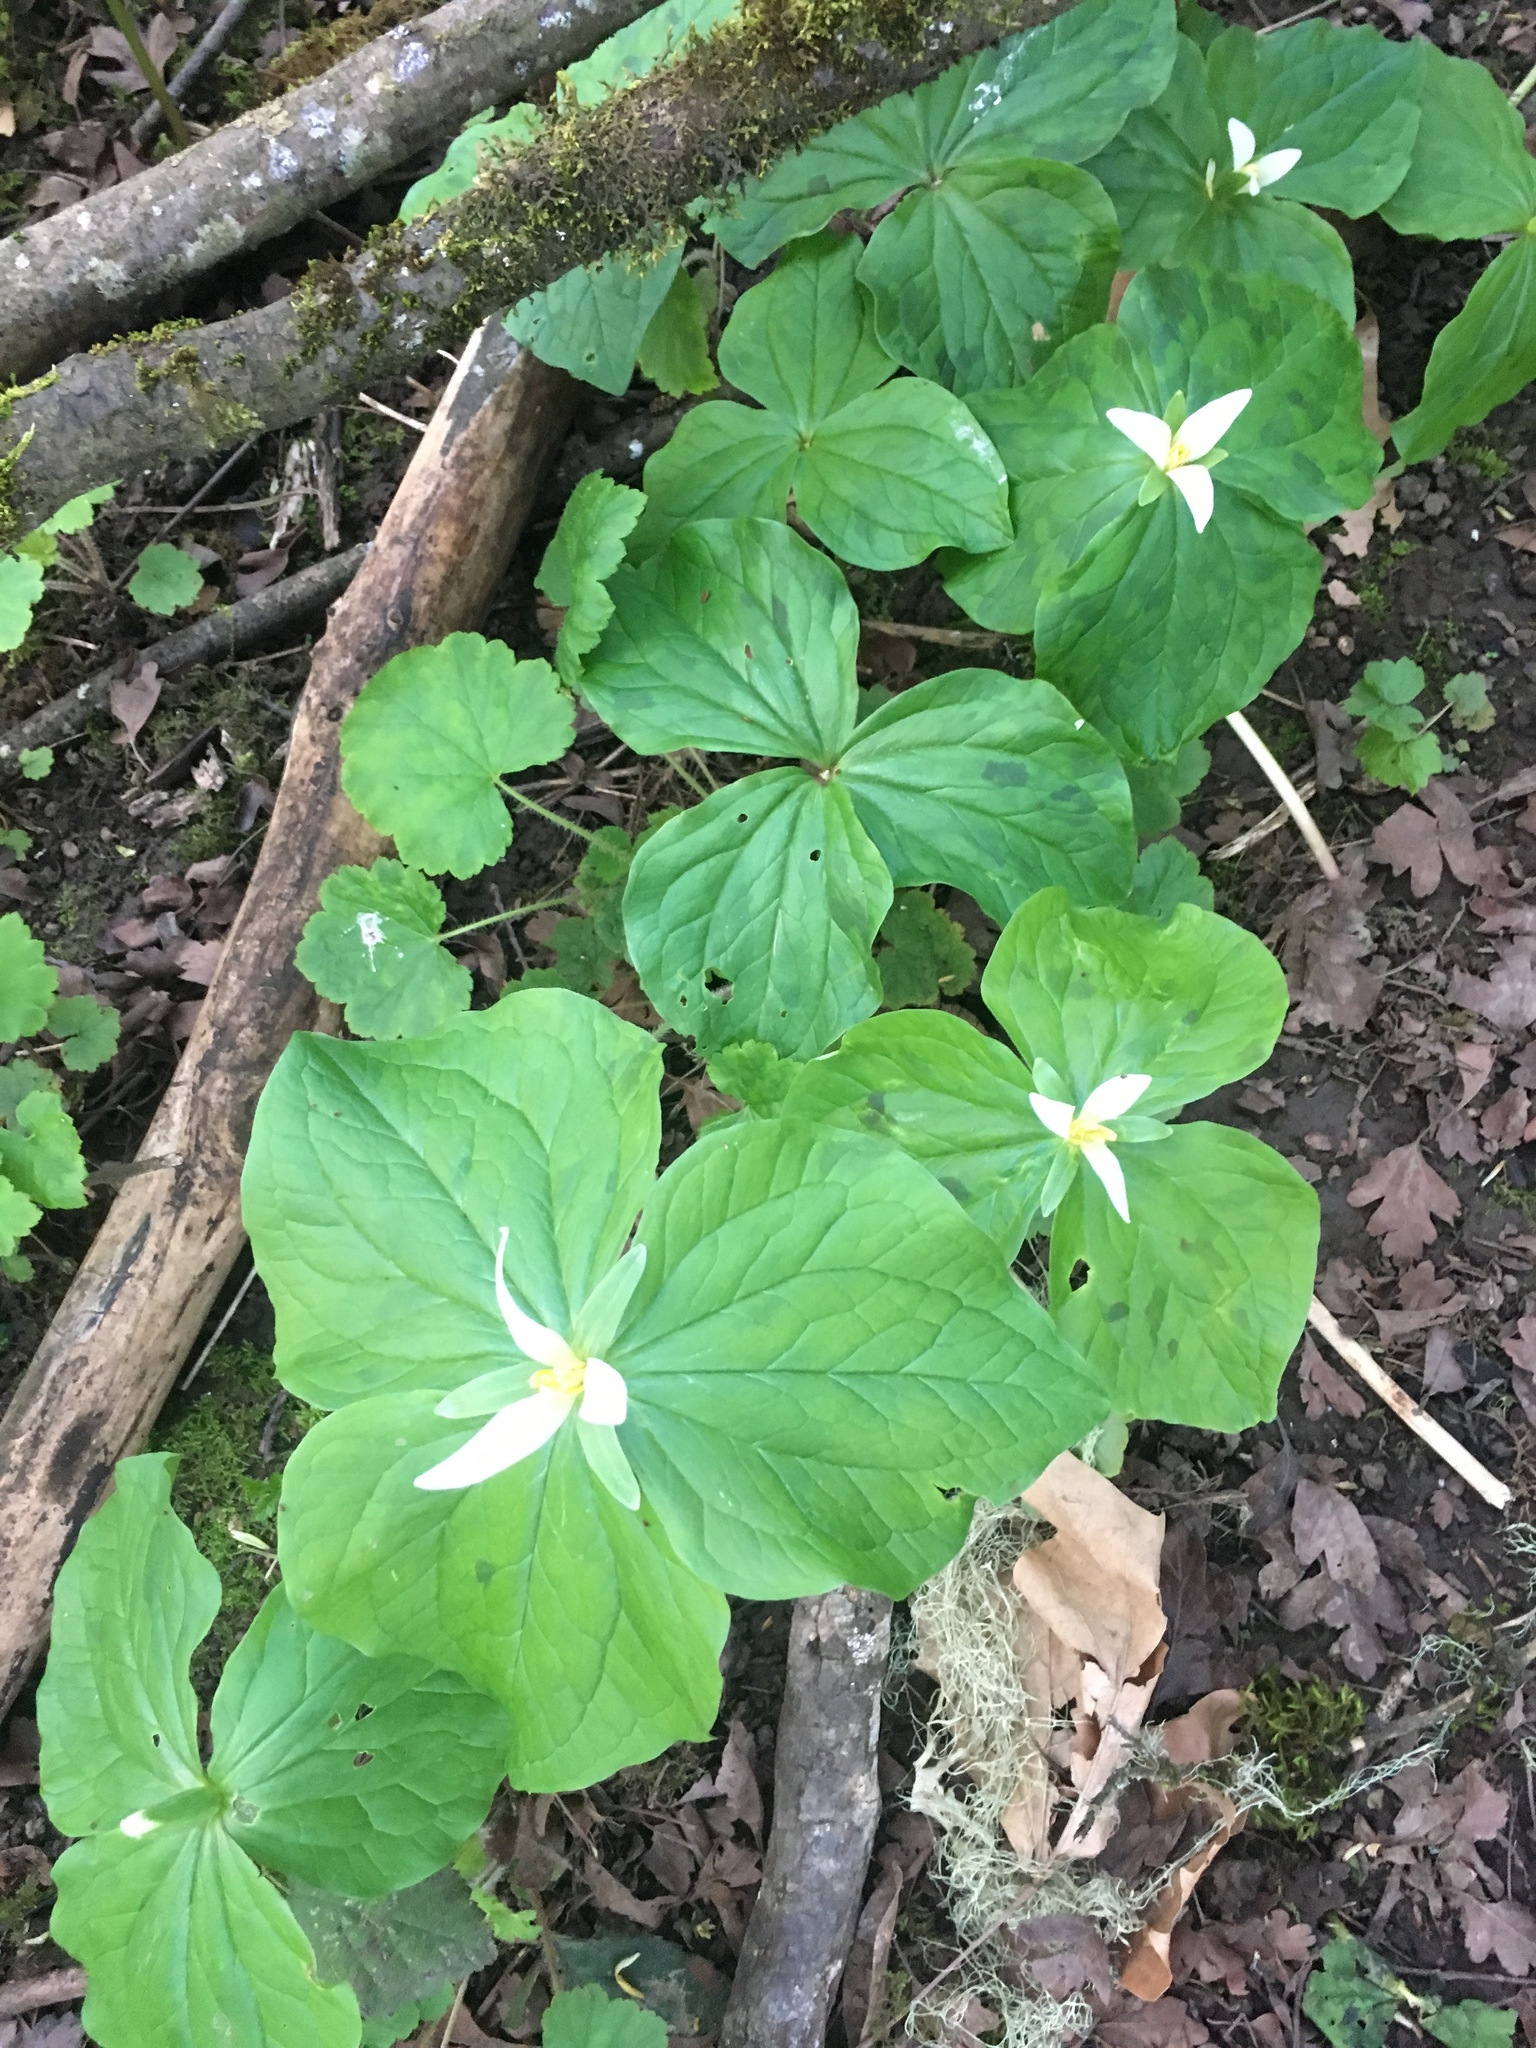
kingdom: Plantae
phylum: Tracheophyta
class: Liliopsida
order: Liliales
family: Melanthiaceae
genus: Trillium
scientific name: Trillium albidum
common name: Freeman's trillium
